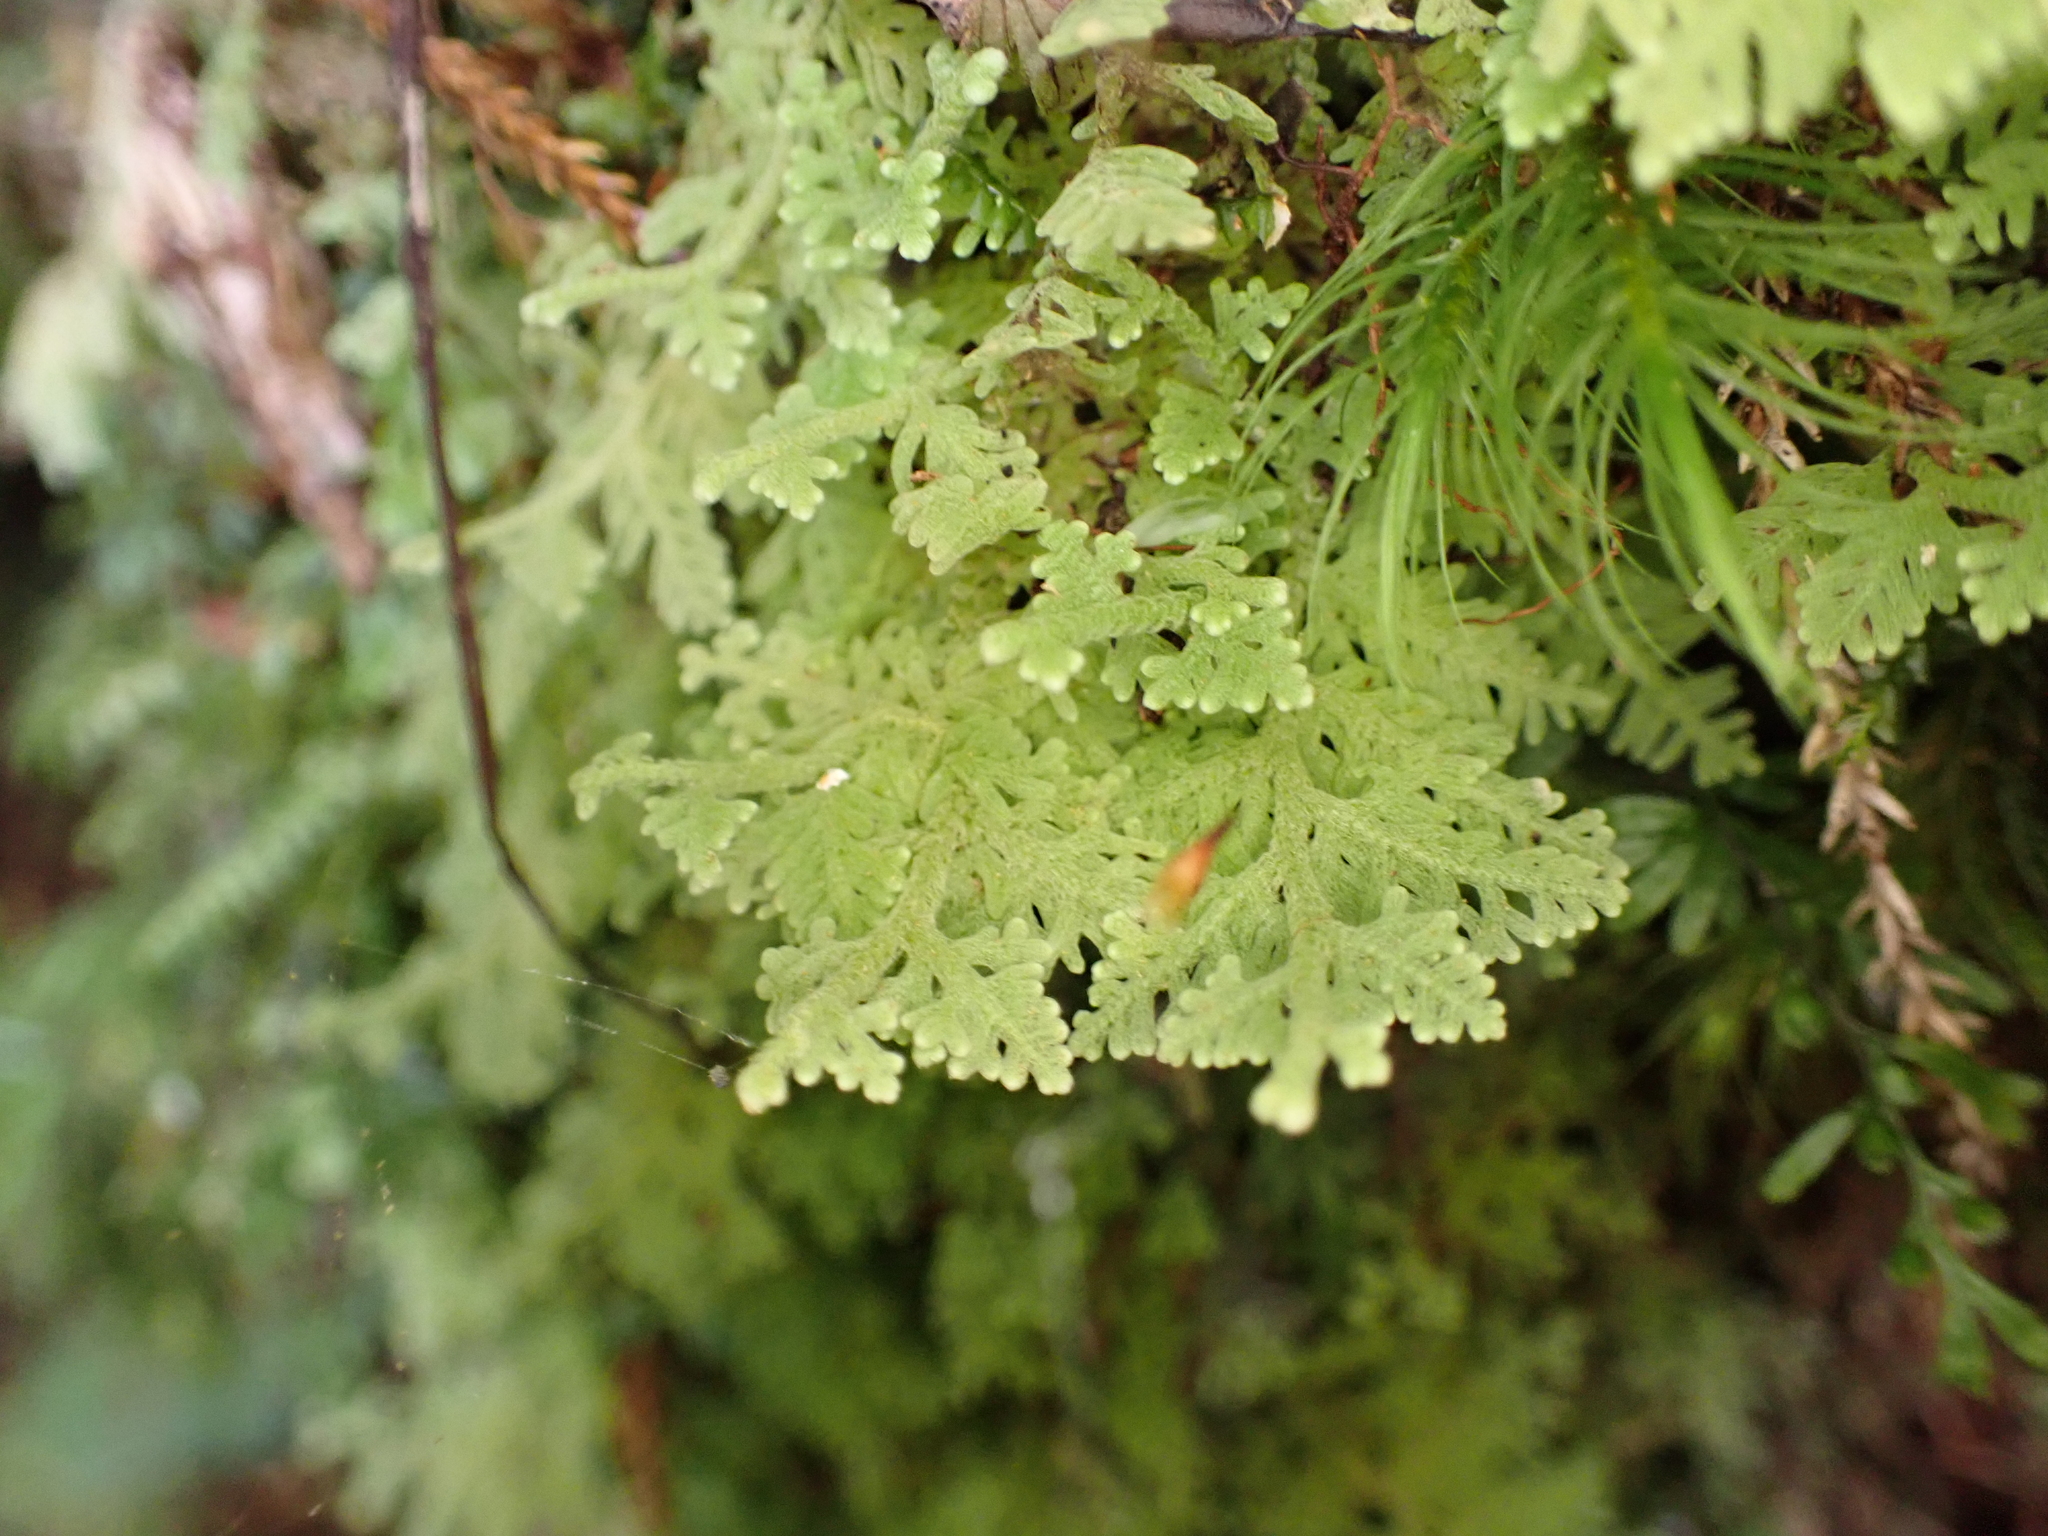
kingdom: Plantae
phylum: Marchantiophyta
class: Jungermanniopsida
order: Jungermanniales
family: Trichocoleaceae
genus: Trichocolea
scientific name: Trichocolea mollissima
